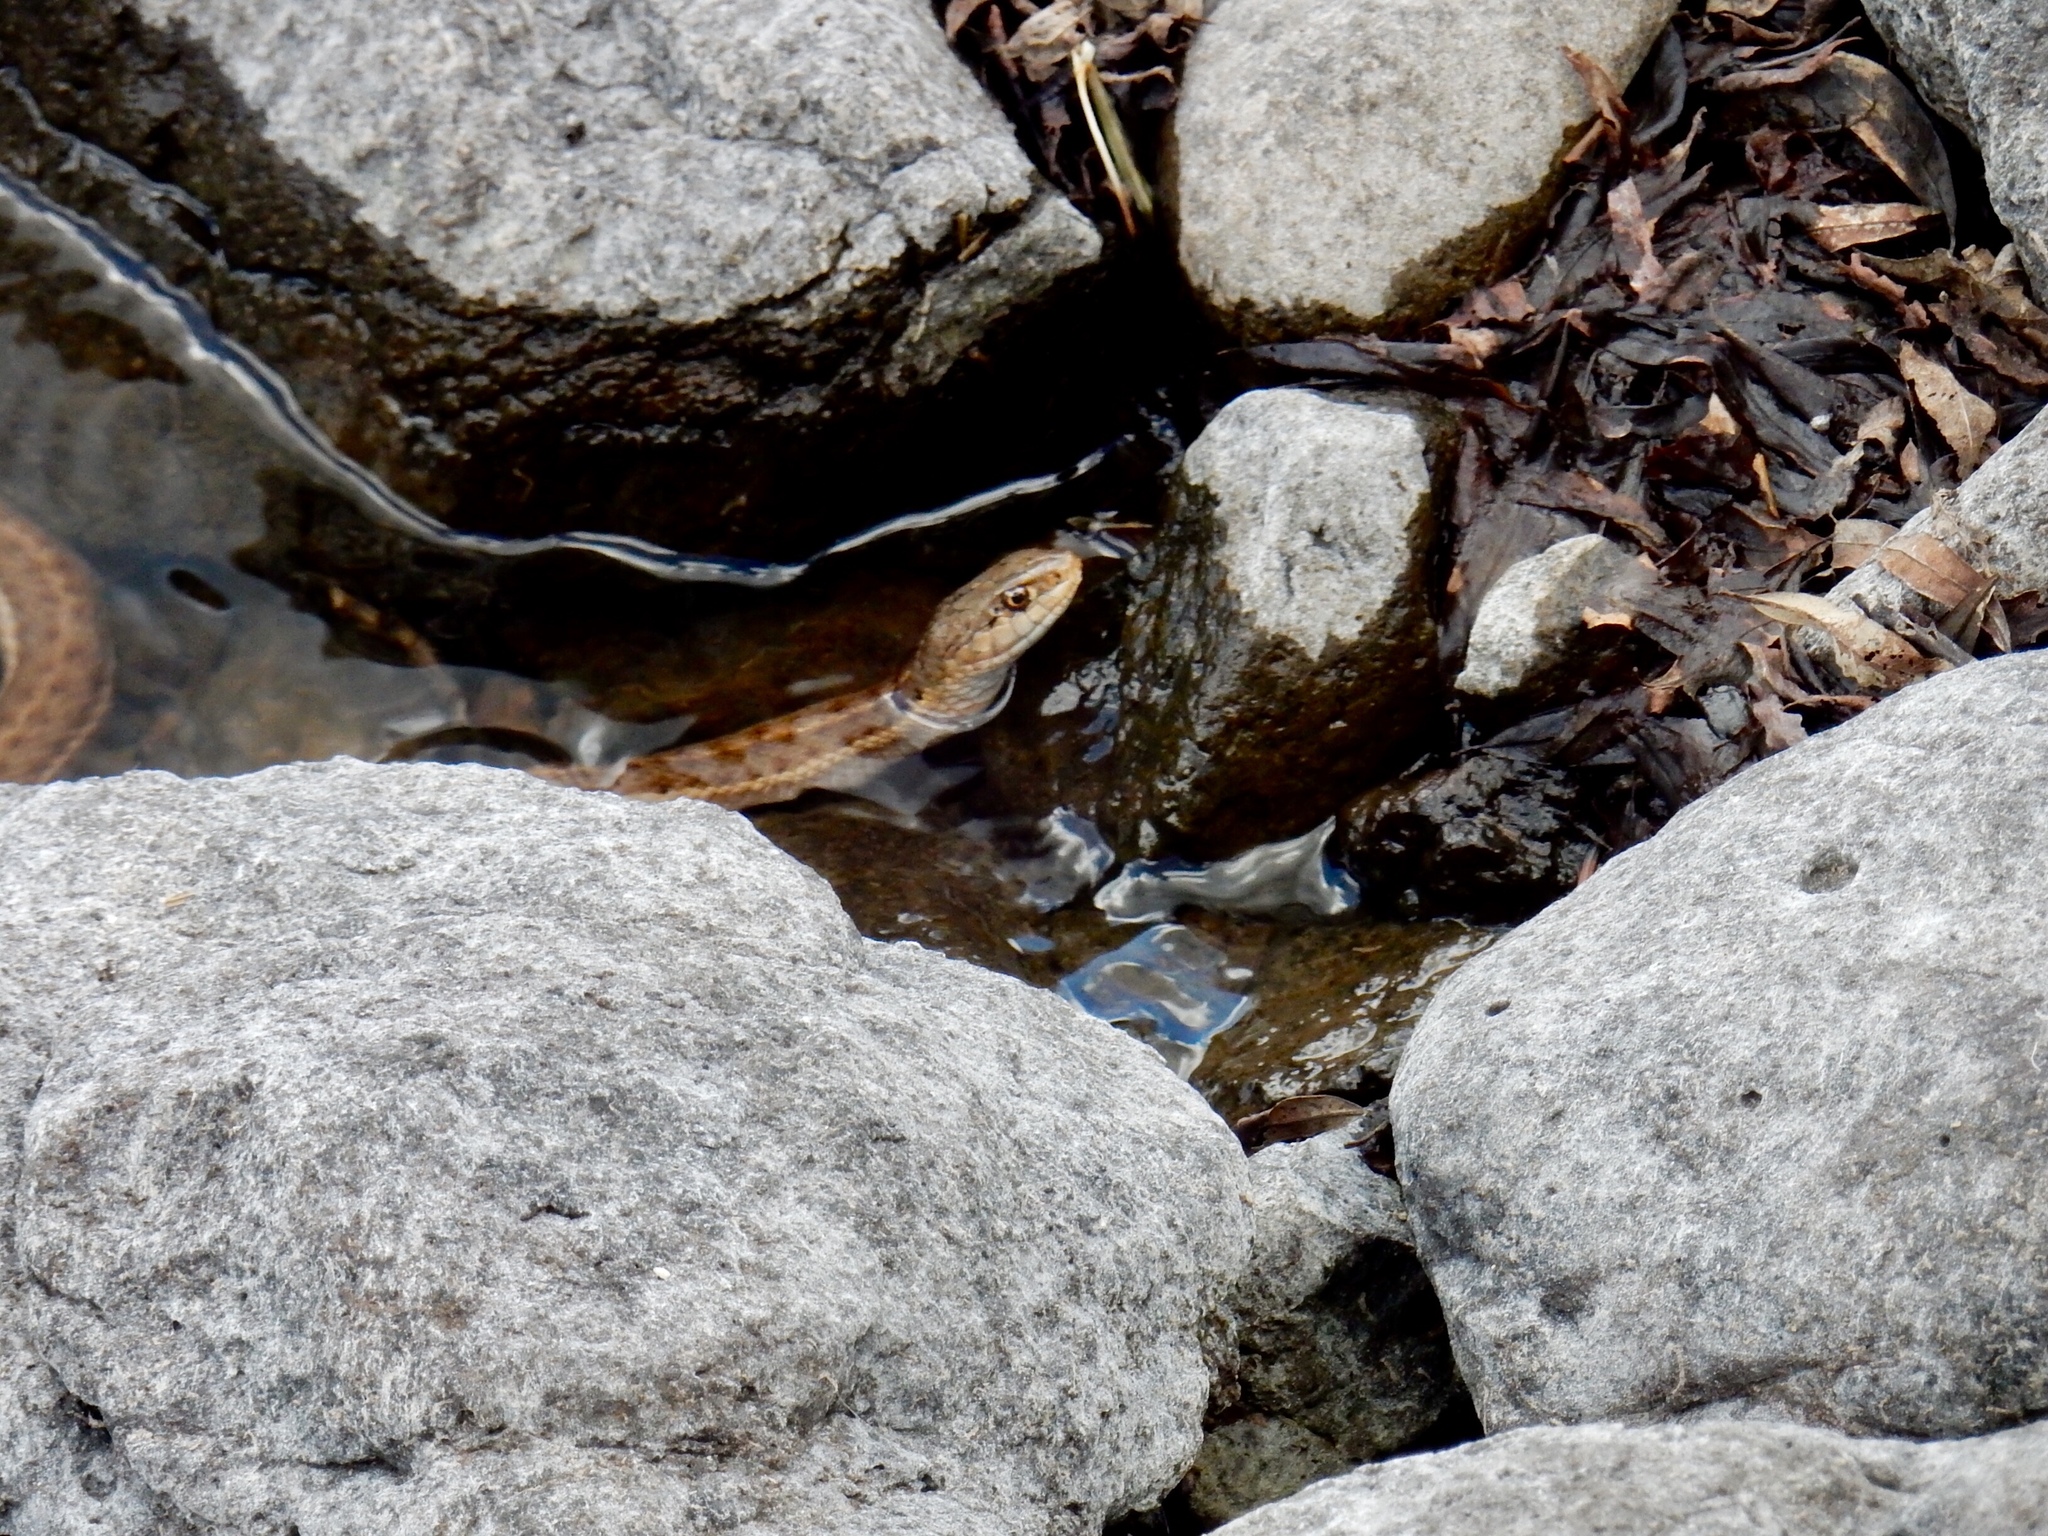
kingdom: Animalia
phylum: Chordata
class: Squamata
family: Colubridae
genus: Thamnophis
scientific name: Thamnophis elegans
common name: Western terrestrial garter snake
